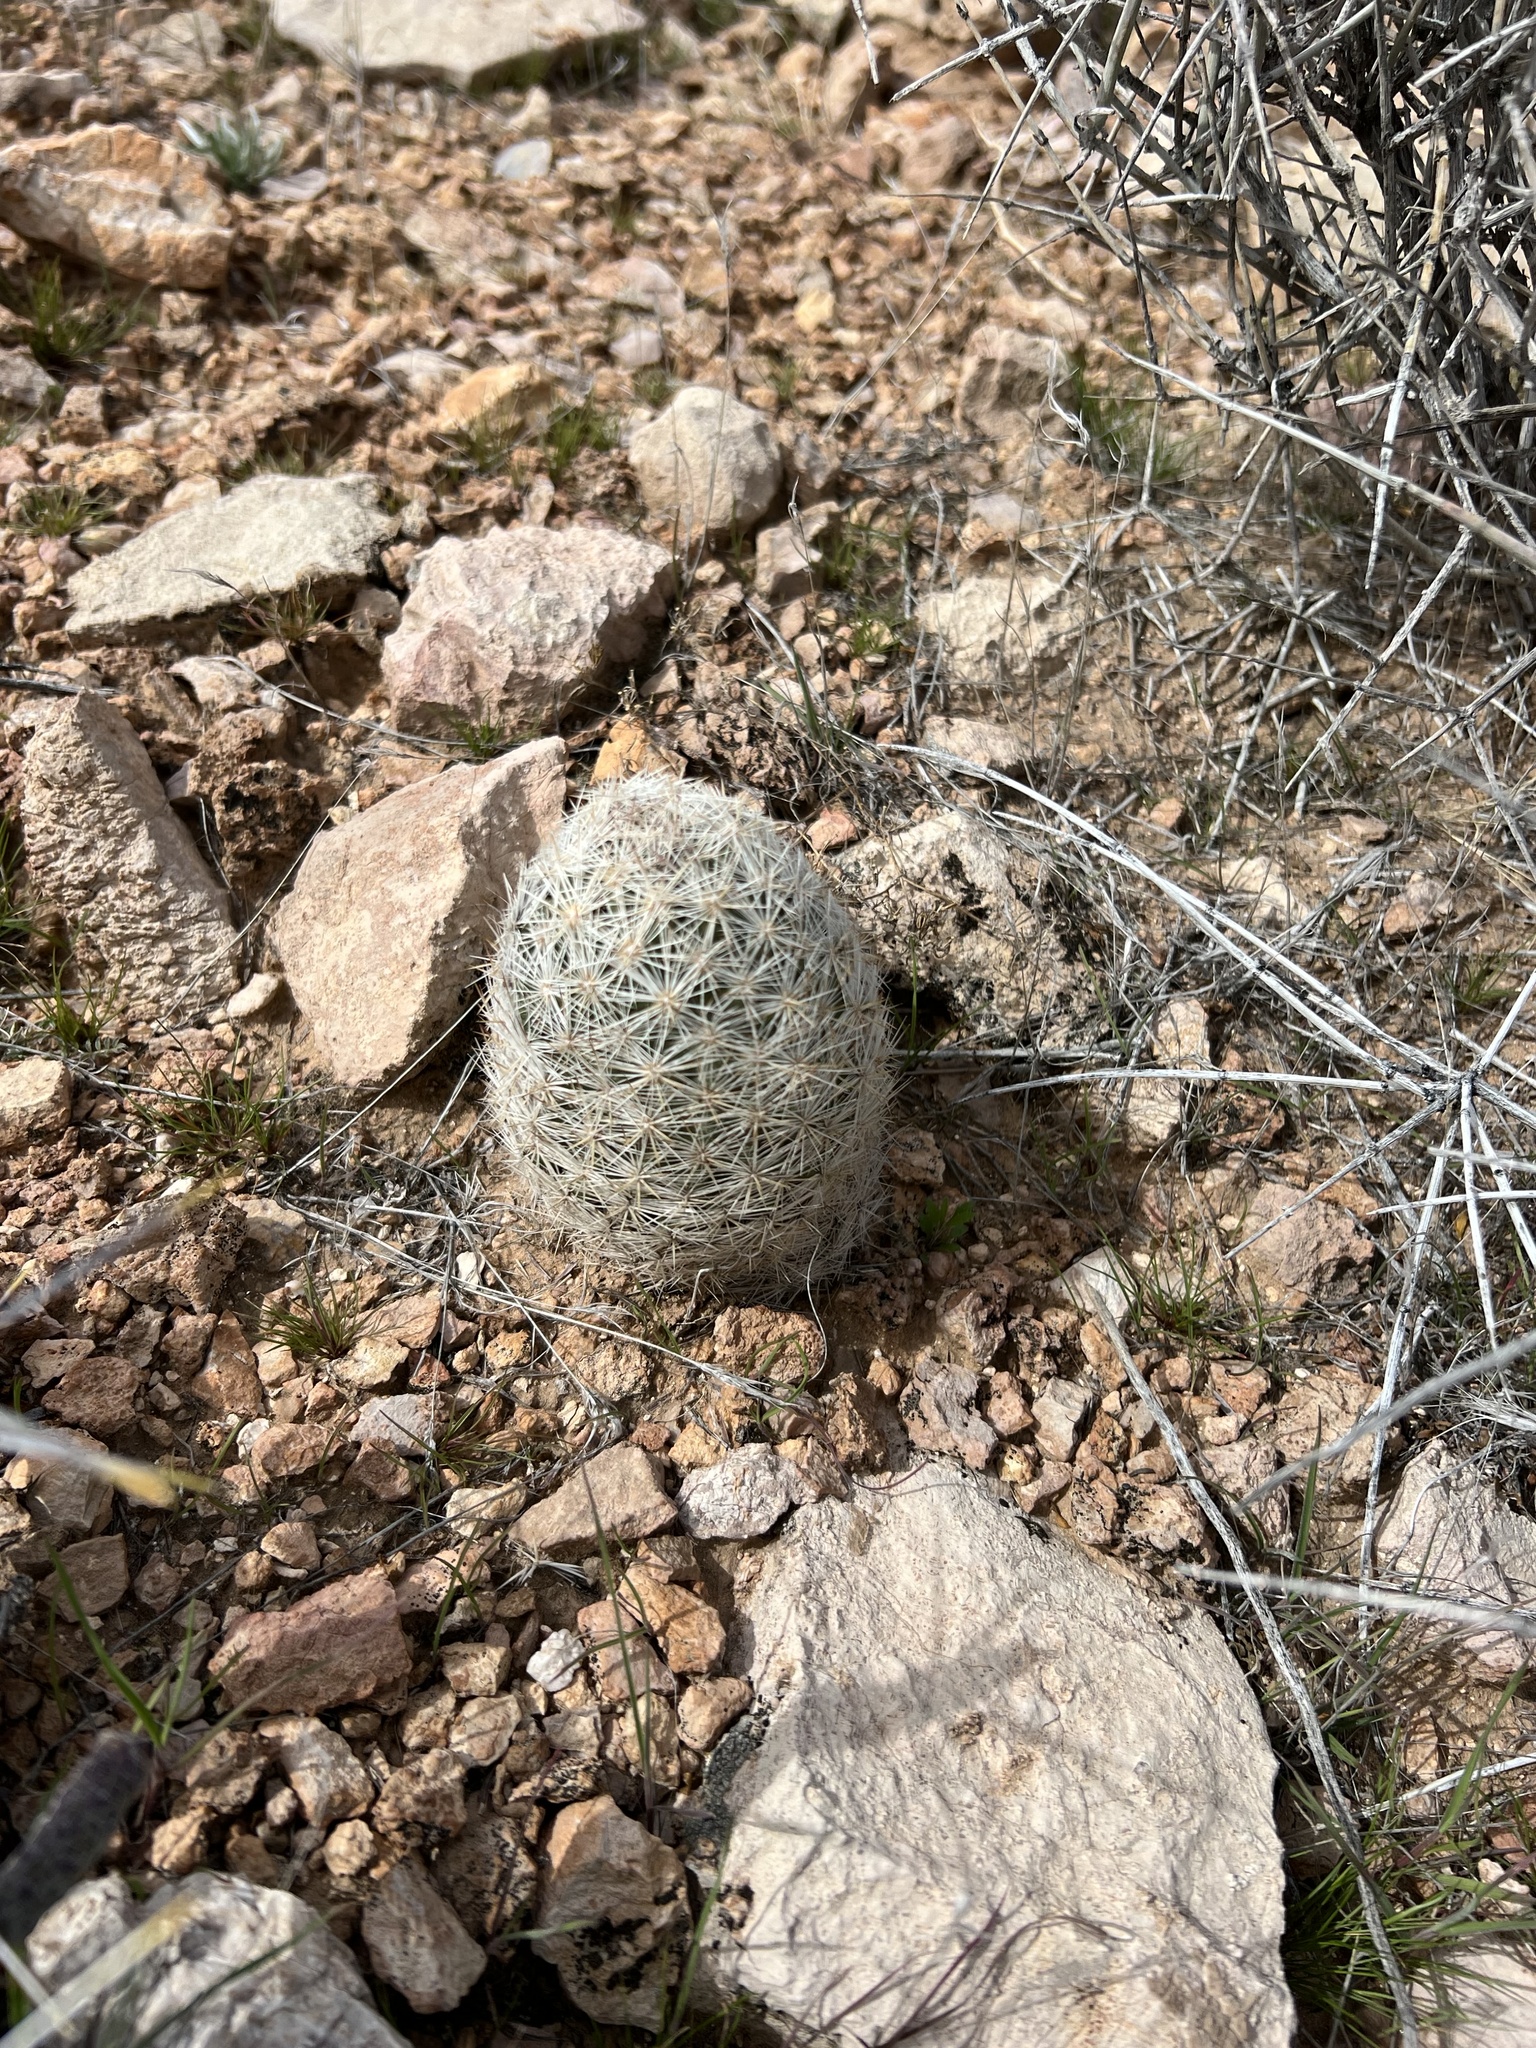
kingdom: Plantae
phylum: Tracheophyta
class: Magnoliopsida
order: Caryophyllales
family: Cactaceae
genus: Pelecyphora
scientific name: Pelecyphora dasyacantha
